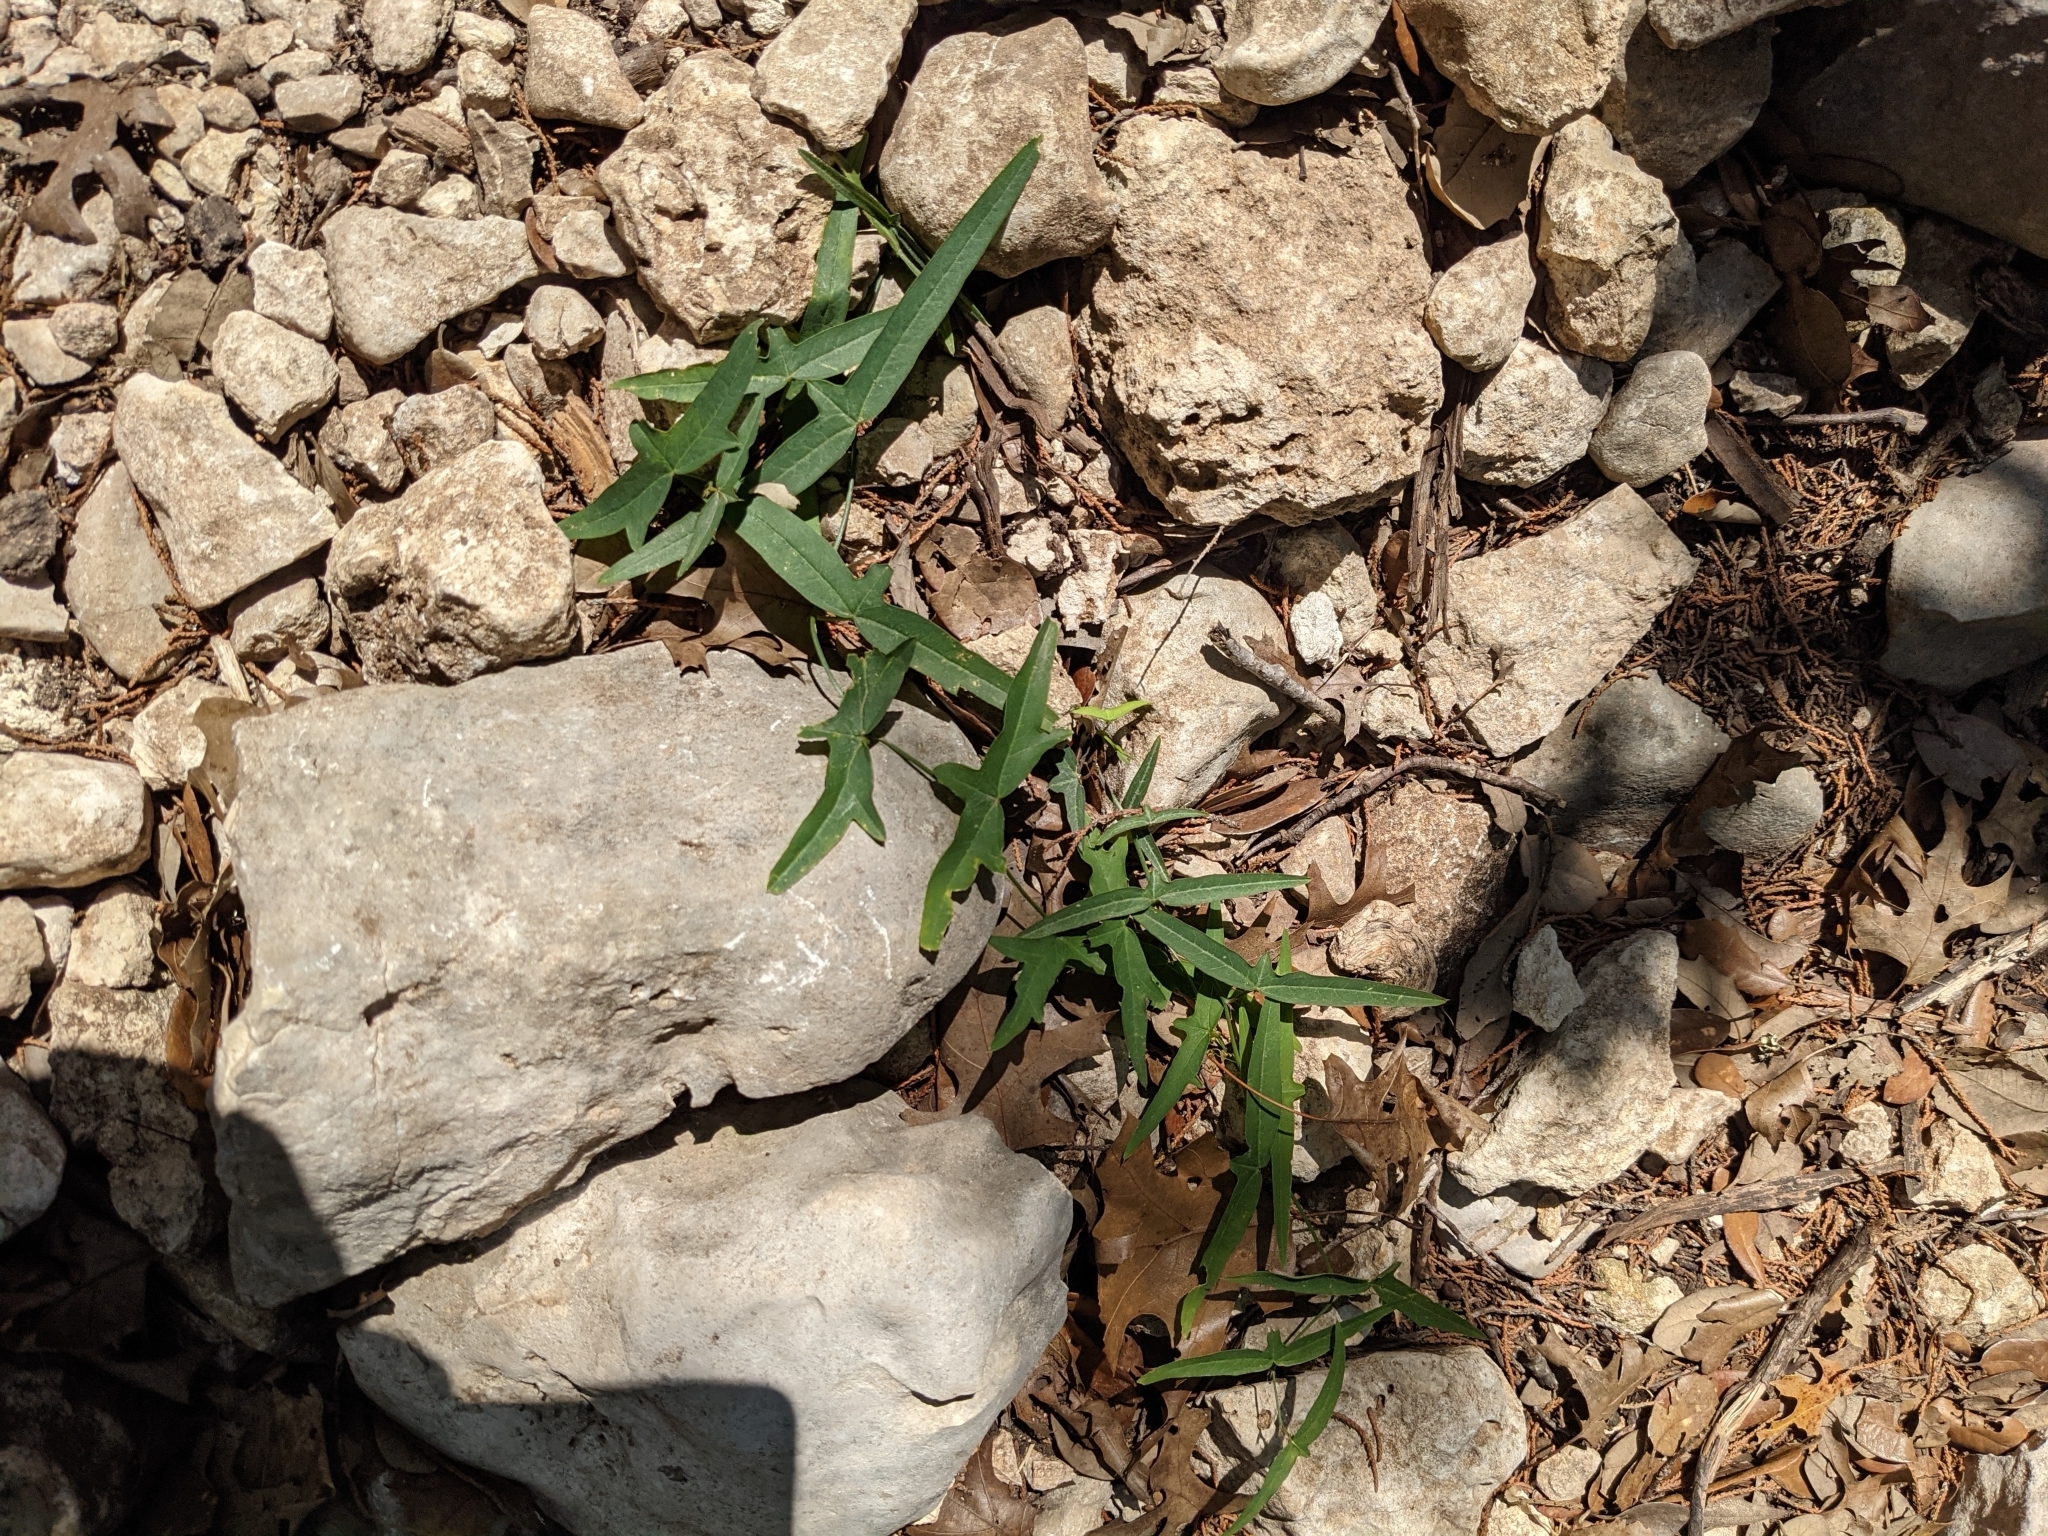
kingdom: Plantae
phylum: Tracheophyta
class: Magnoliopsida
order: Malpighiales
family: Passifloraceae
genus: Passiflora
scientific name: Passiflora tenuiloba
